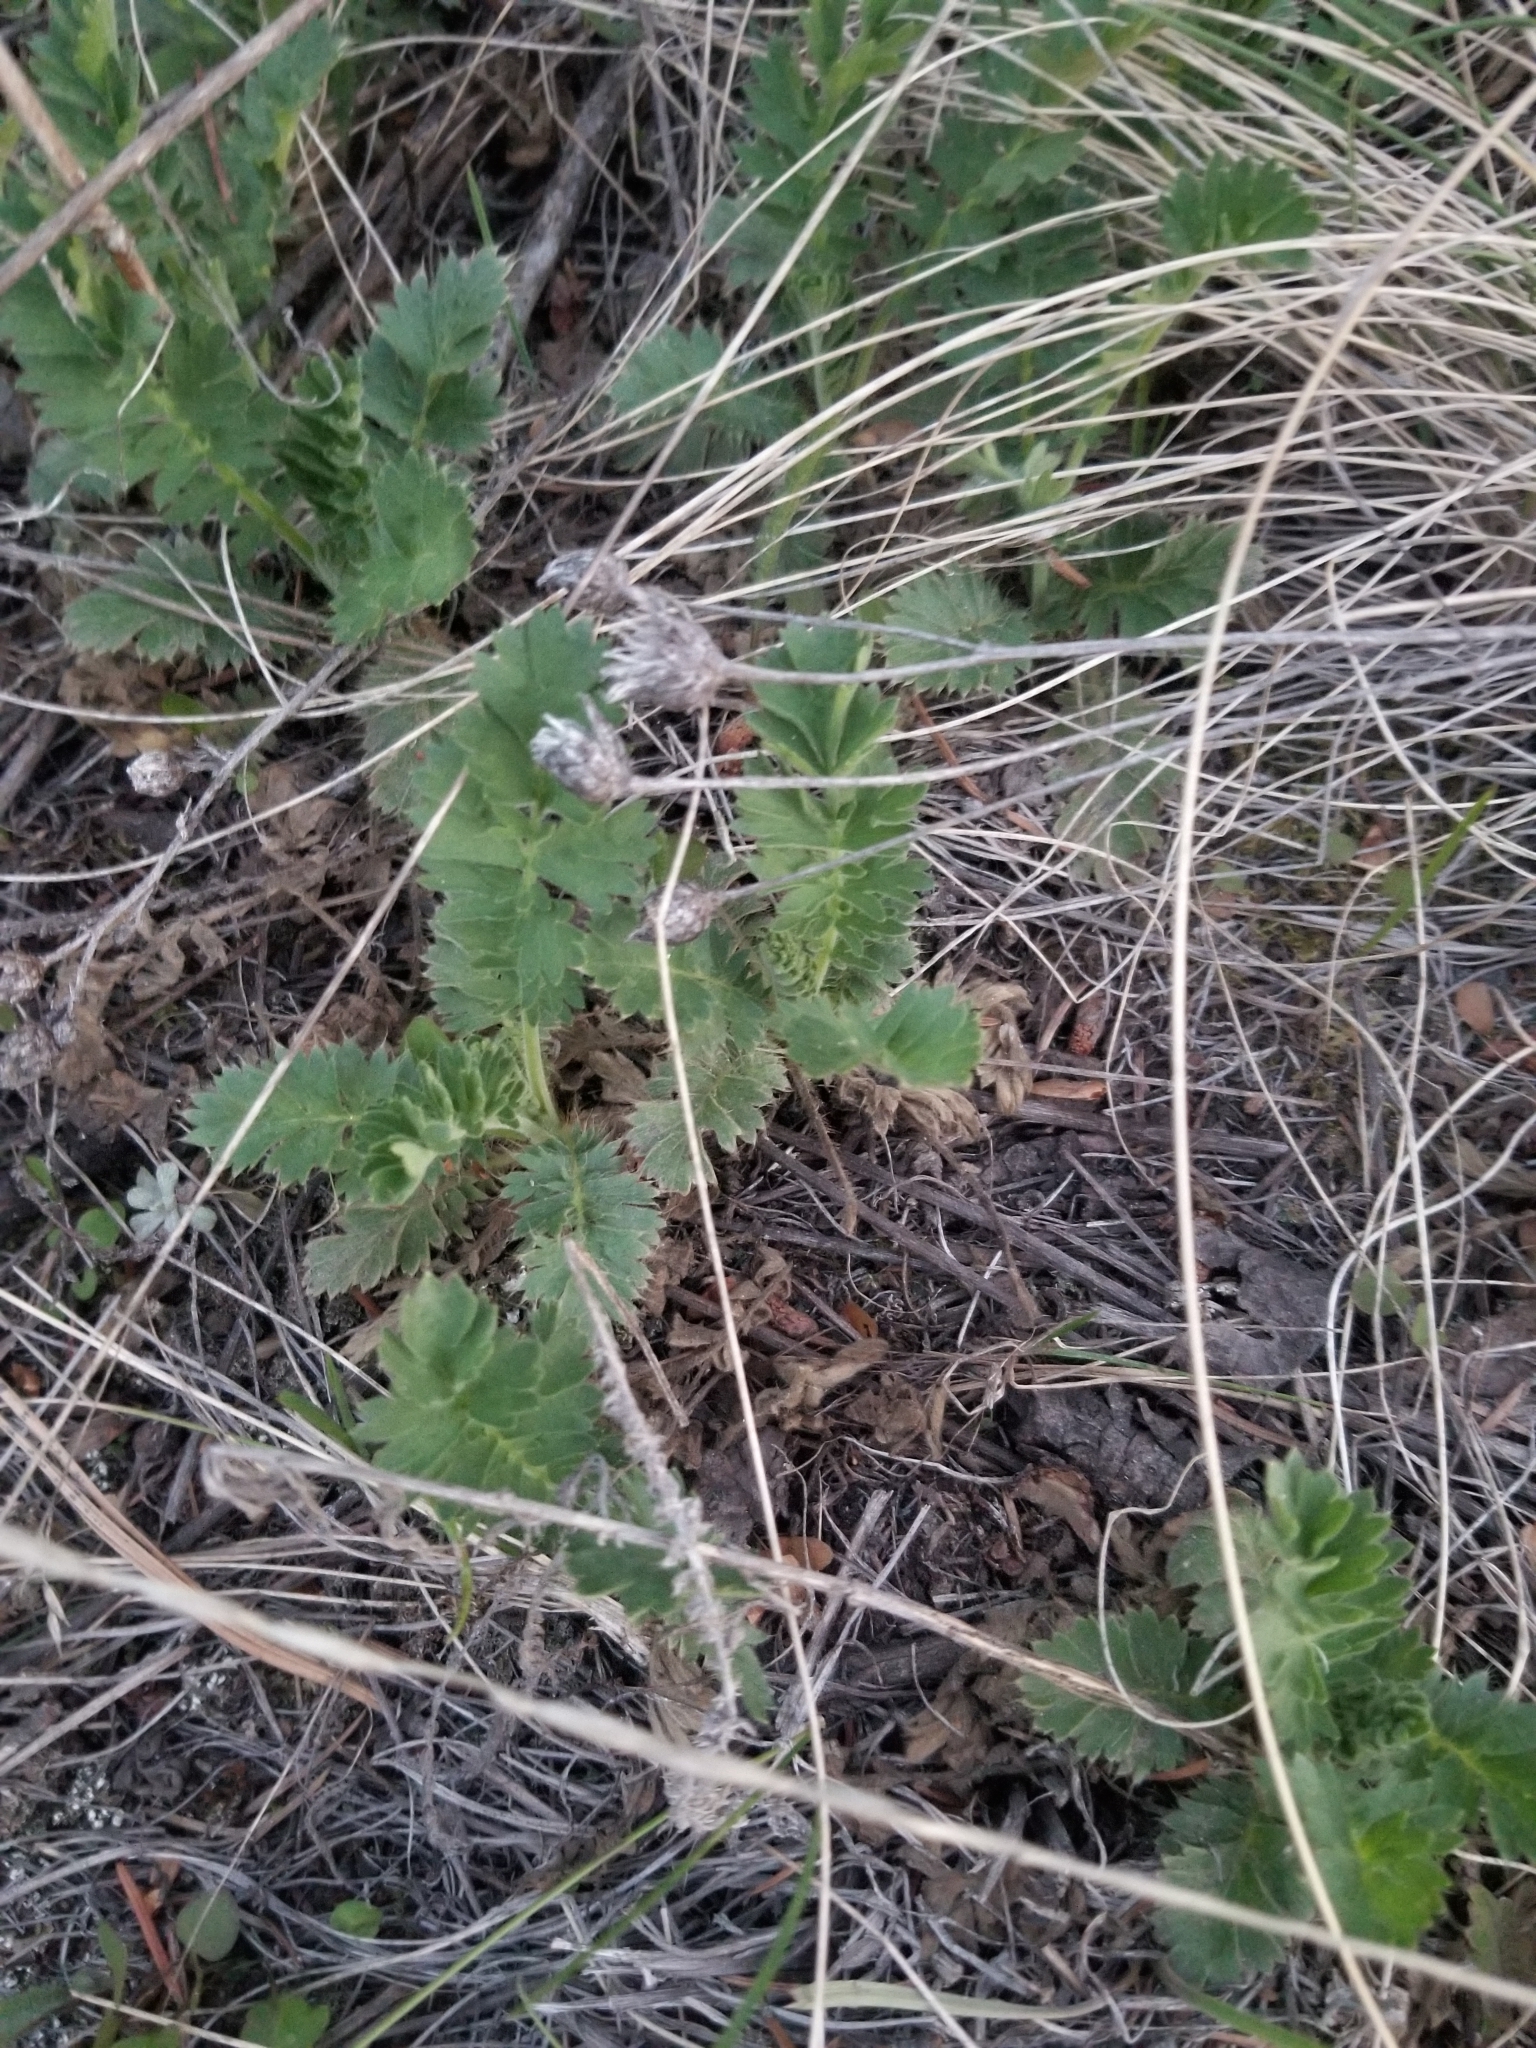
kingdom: Plantae
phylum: Tracheophyta
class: Magnoliopsida
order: Rosales
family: Rosaceae
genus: Geum
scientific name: Geum triflorum
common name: Old man's whiskers
